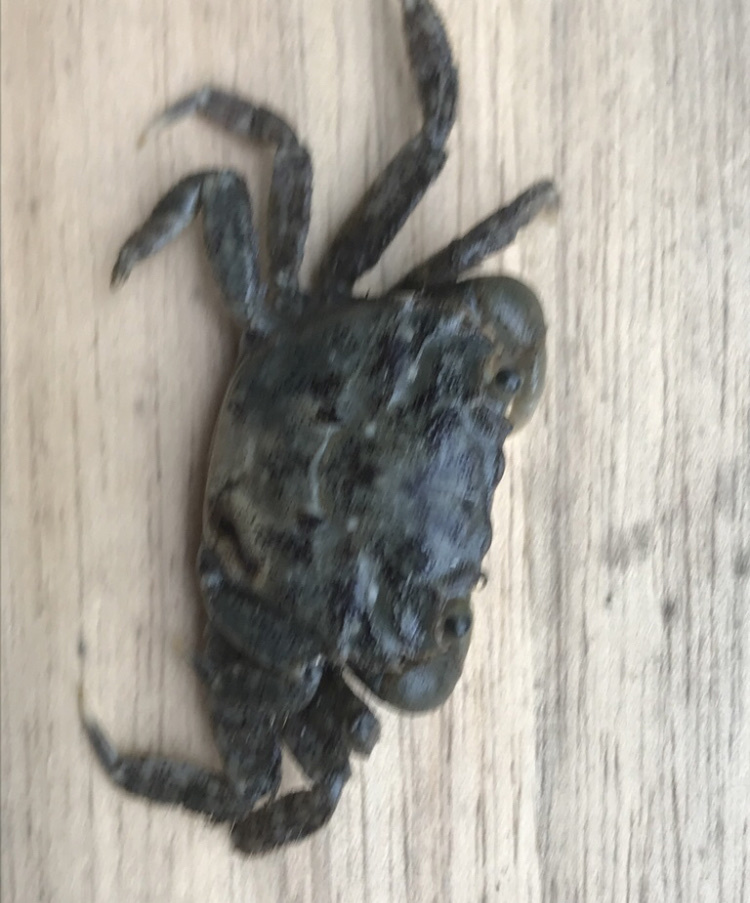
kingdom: Animalia
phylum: Arthropoda
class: Malacostraca
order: Decapoda
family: Varunidae
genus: Hemigrapsus
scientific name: Hemigrapsus oregonensis
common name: Yellow shore crab
